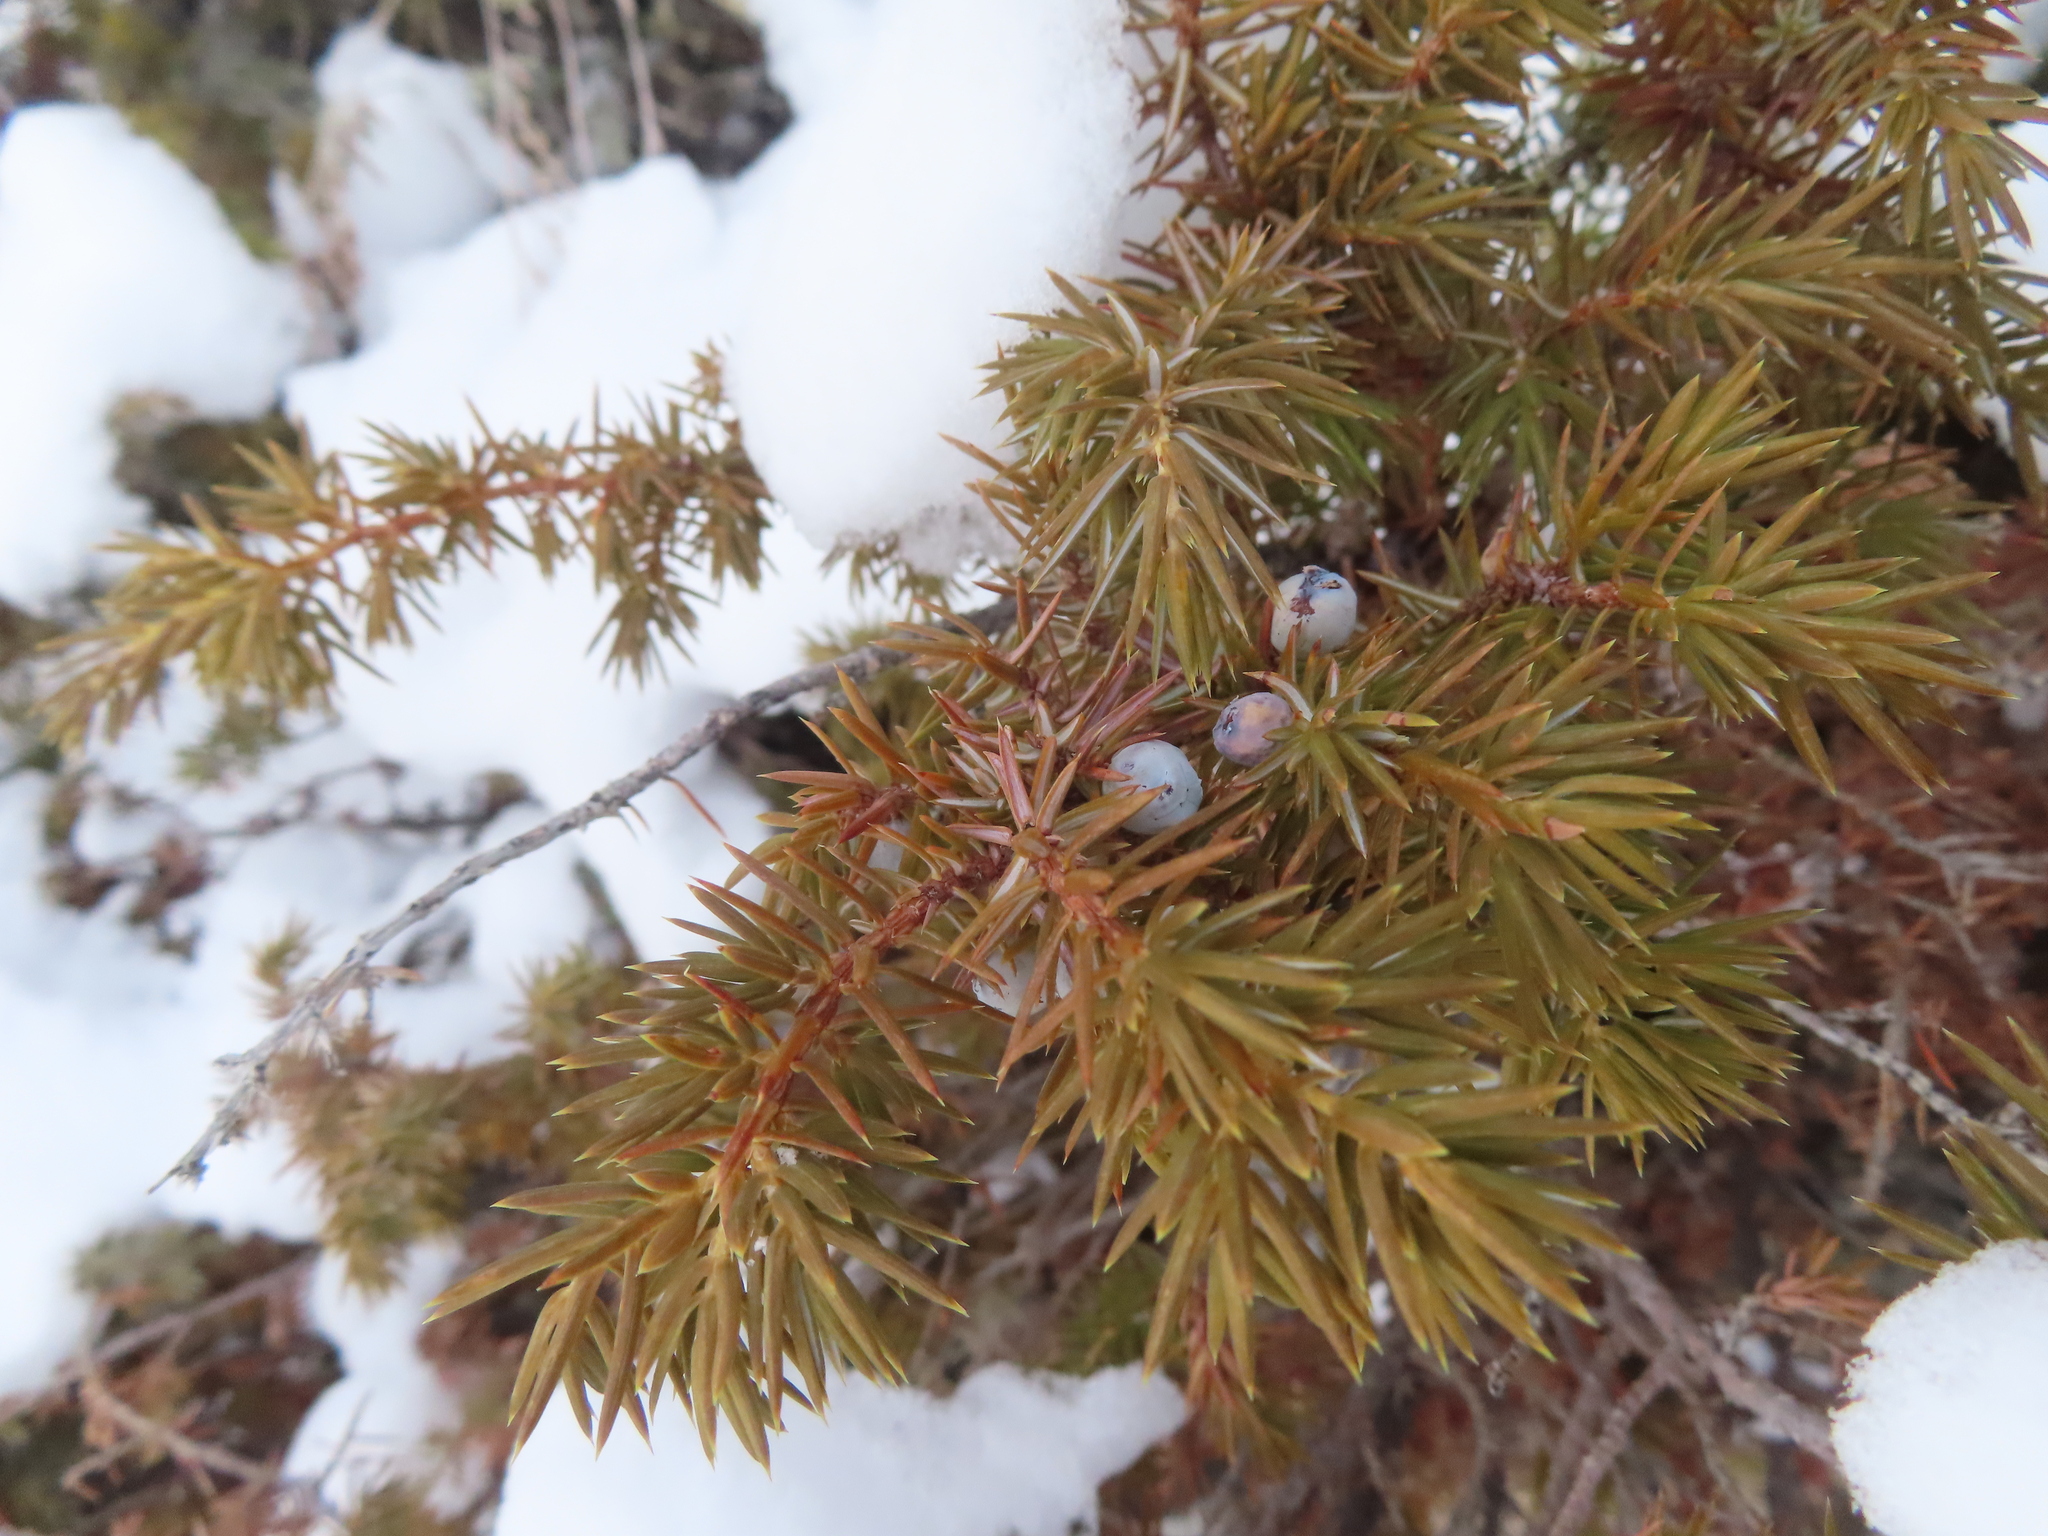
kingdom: Plantae
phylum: Tracheophyta
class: Pinopsida
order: Pinales
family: Cupressaceae
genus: Juniperus
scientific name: Juniperus communis
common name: Common juniper
